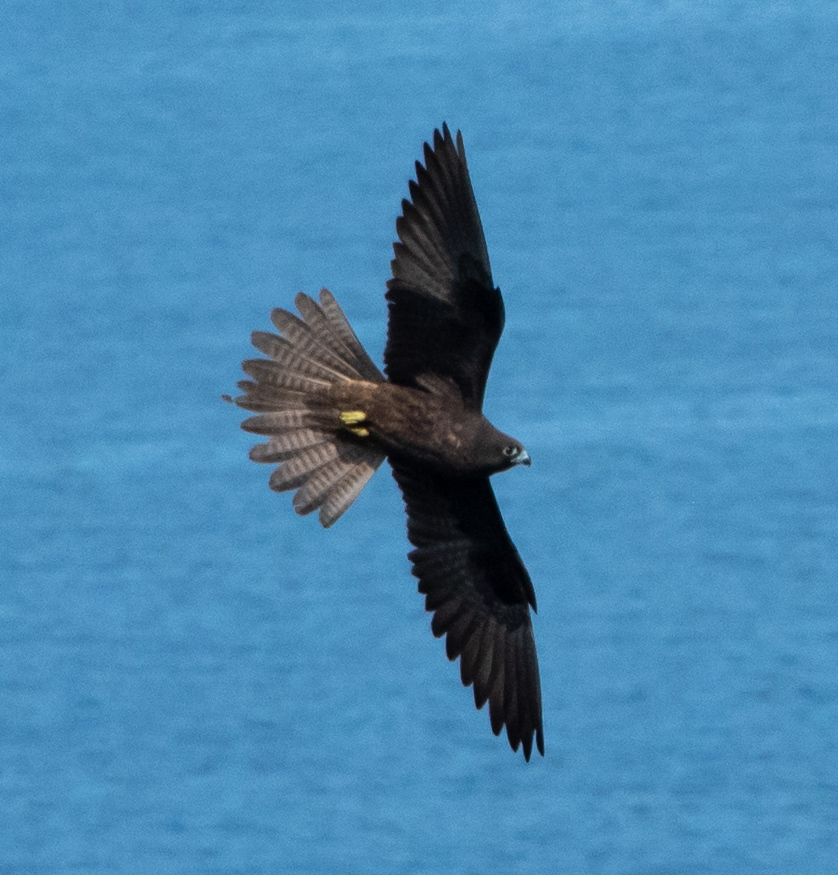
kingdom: Animalia
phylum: Chordata
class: Aves
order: Falconiformes
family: Falconidae
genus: Falco
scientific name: Falco eleonorae
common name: Eleonora's falcon
